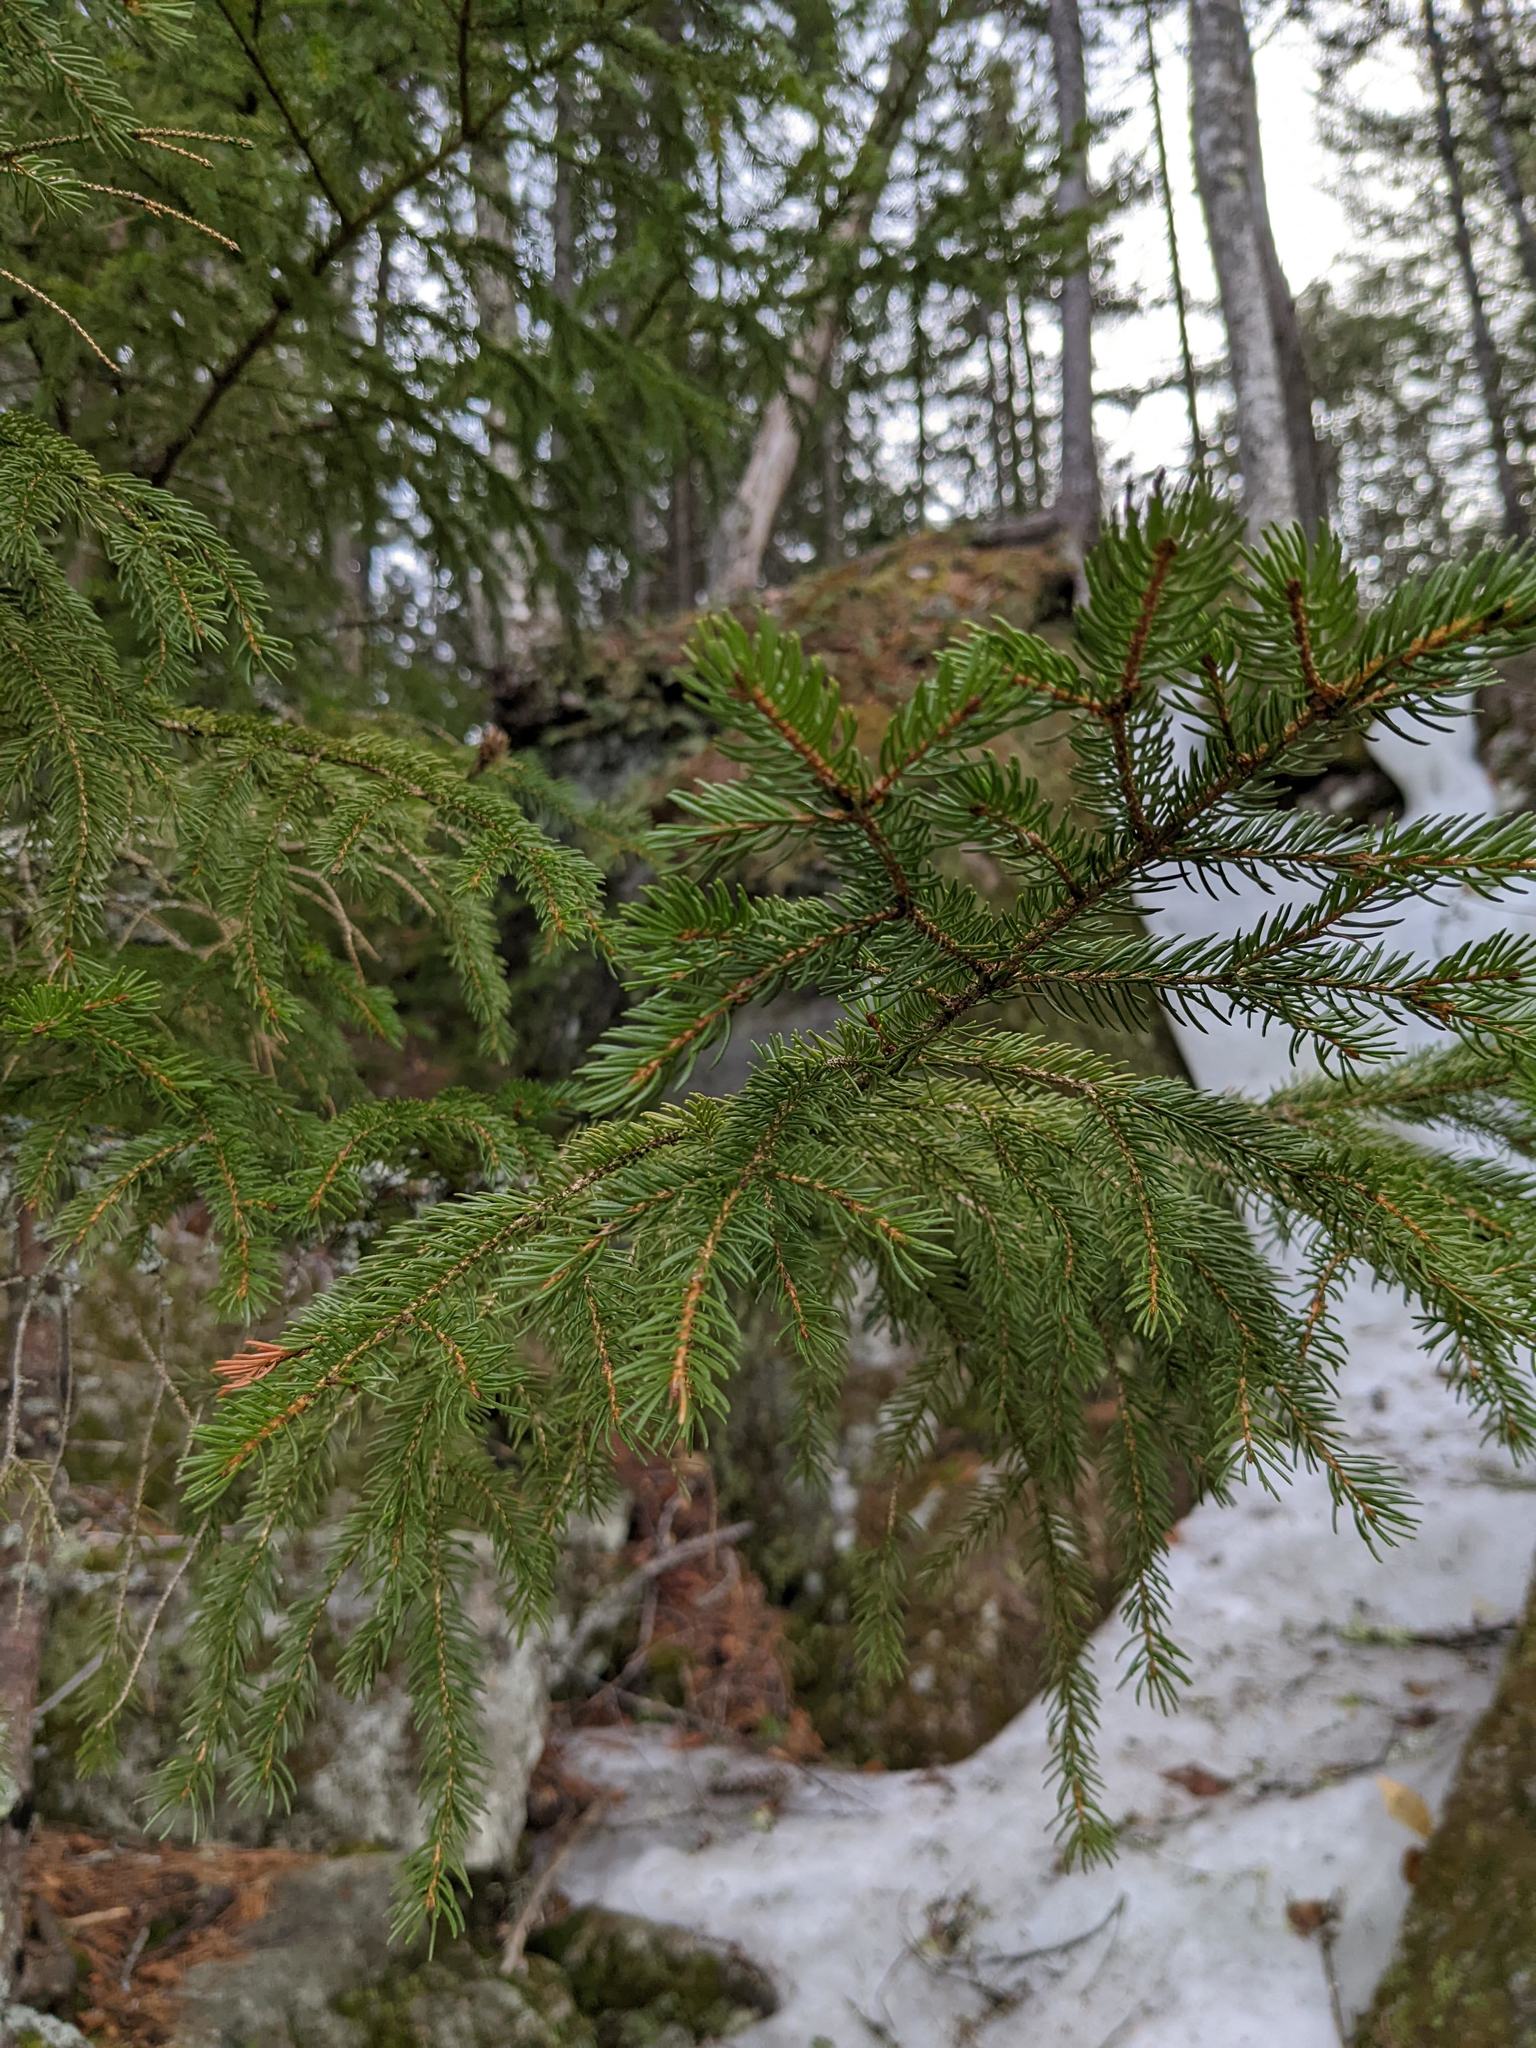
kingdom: Plantae
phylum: Tracheophyta
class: Pinopsida
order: Pinales
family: Pinaceae
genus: Picea
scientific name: Picea rubens
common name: Red spruce
